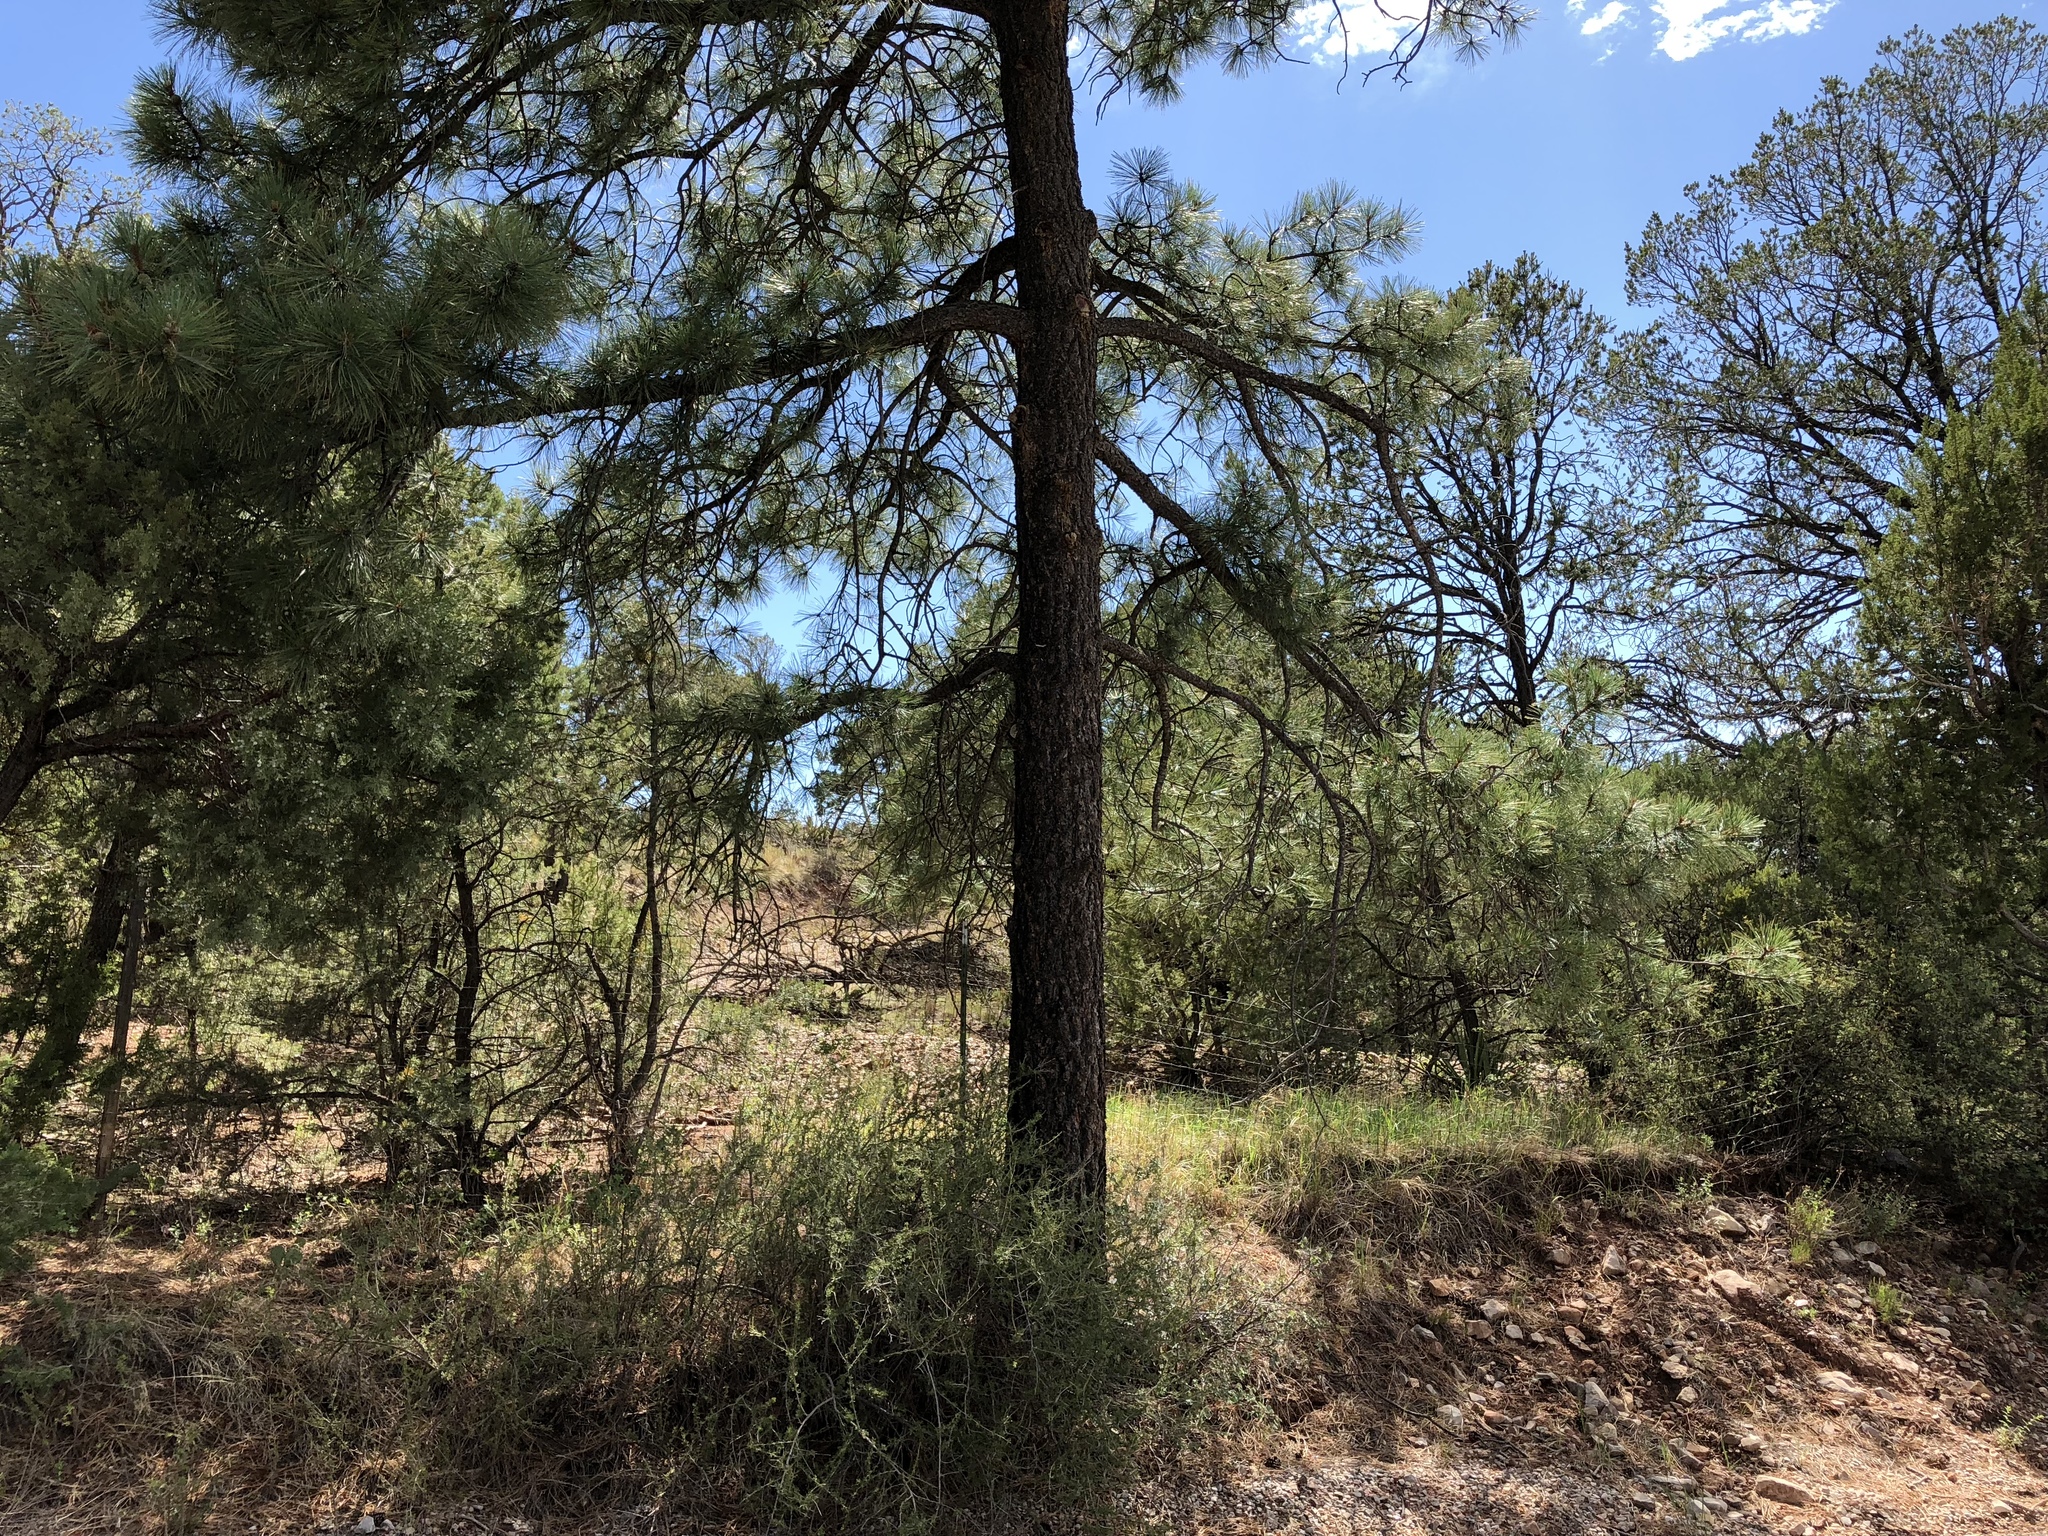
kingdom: Plantae
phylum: Tracheophyta
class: Pinopsida
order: Pinales
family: Pinaceae
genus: Pinus
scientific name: Pinus ponderosa
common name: Western yellow-pine
